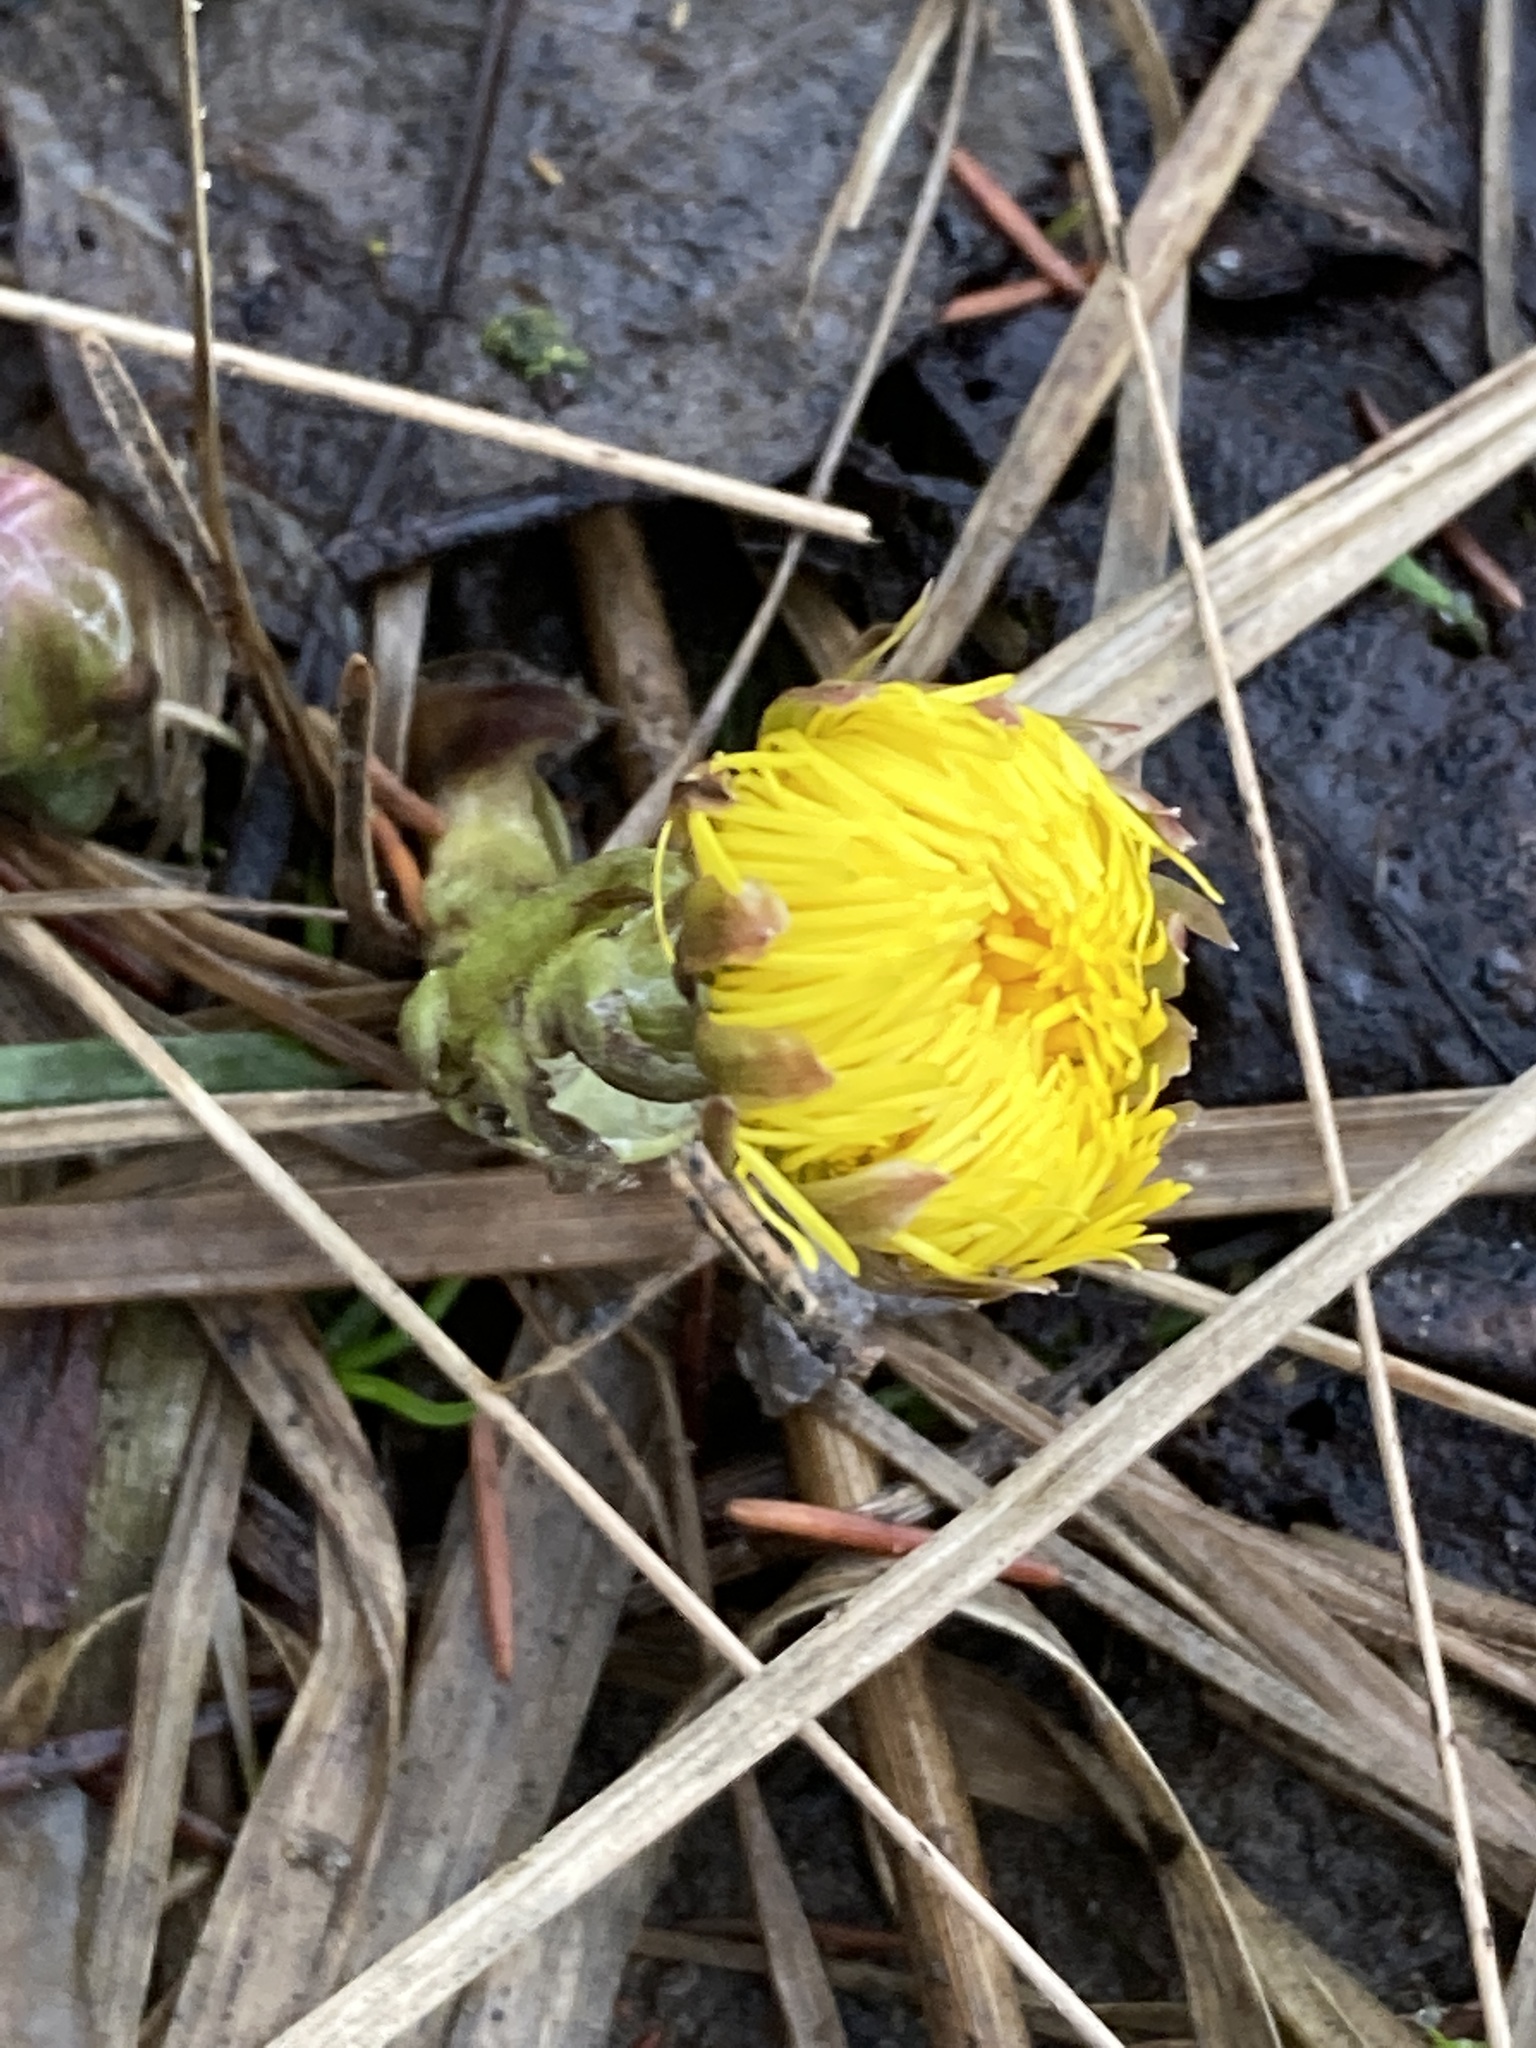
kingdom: Plantae
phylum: Tracheophyta
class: Magnoliopsida
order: Asterales
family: Asteraceae
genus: Tussilago
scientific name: Tussilago farfara
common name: Coltsfoot
